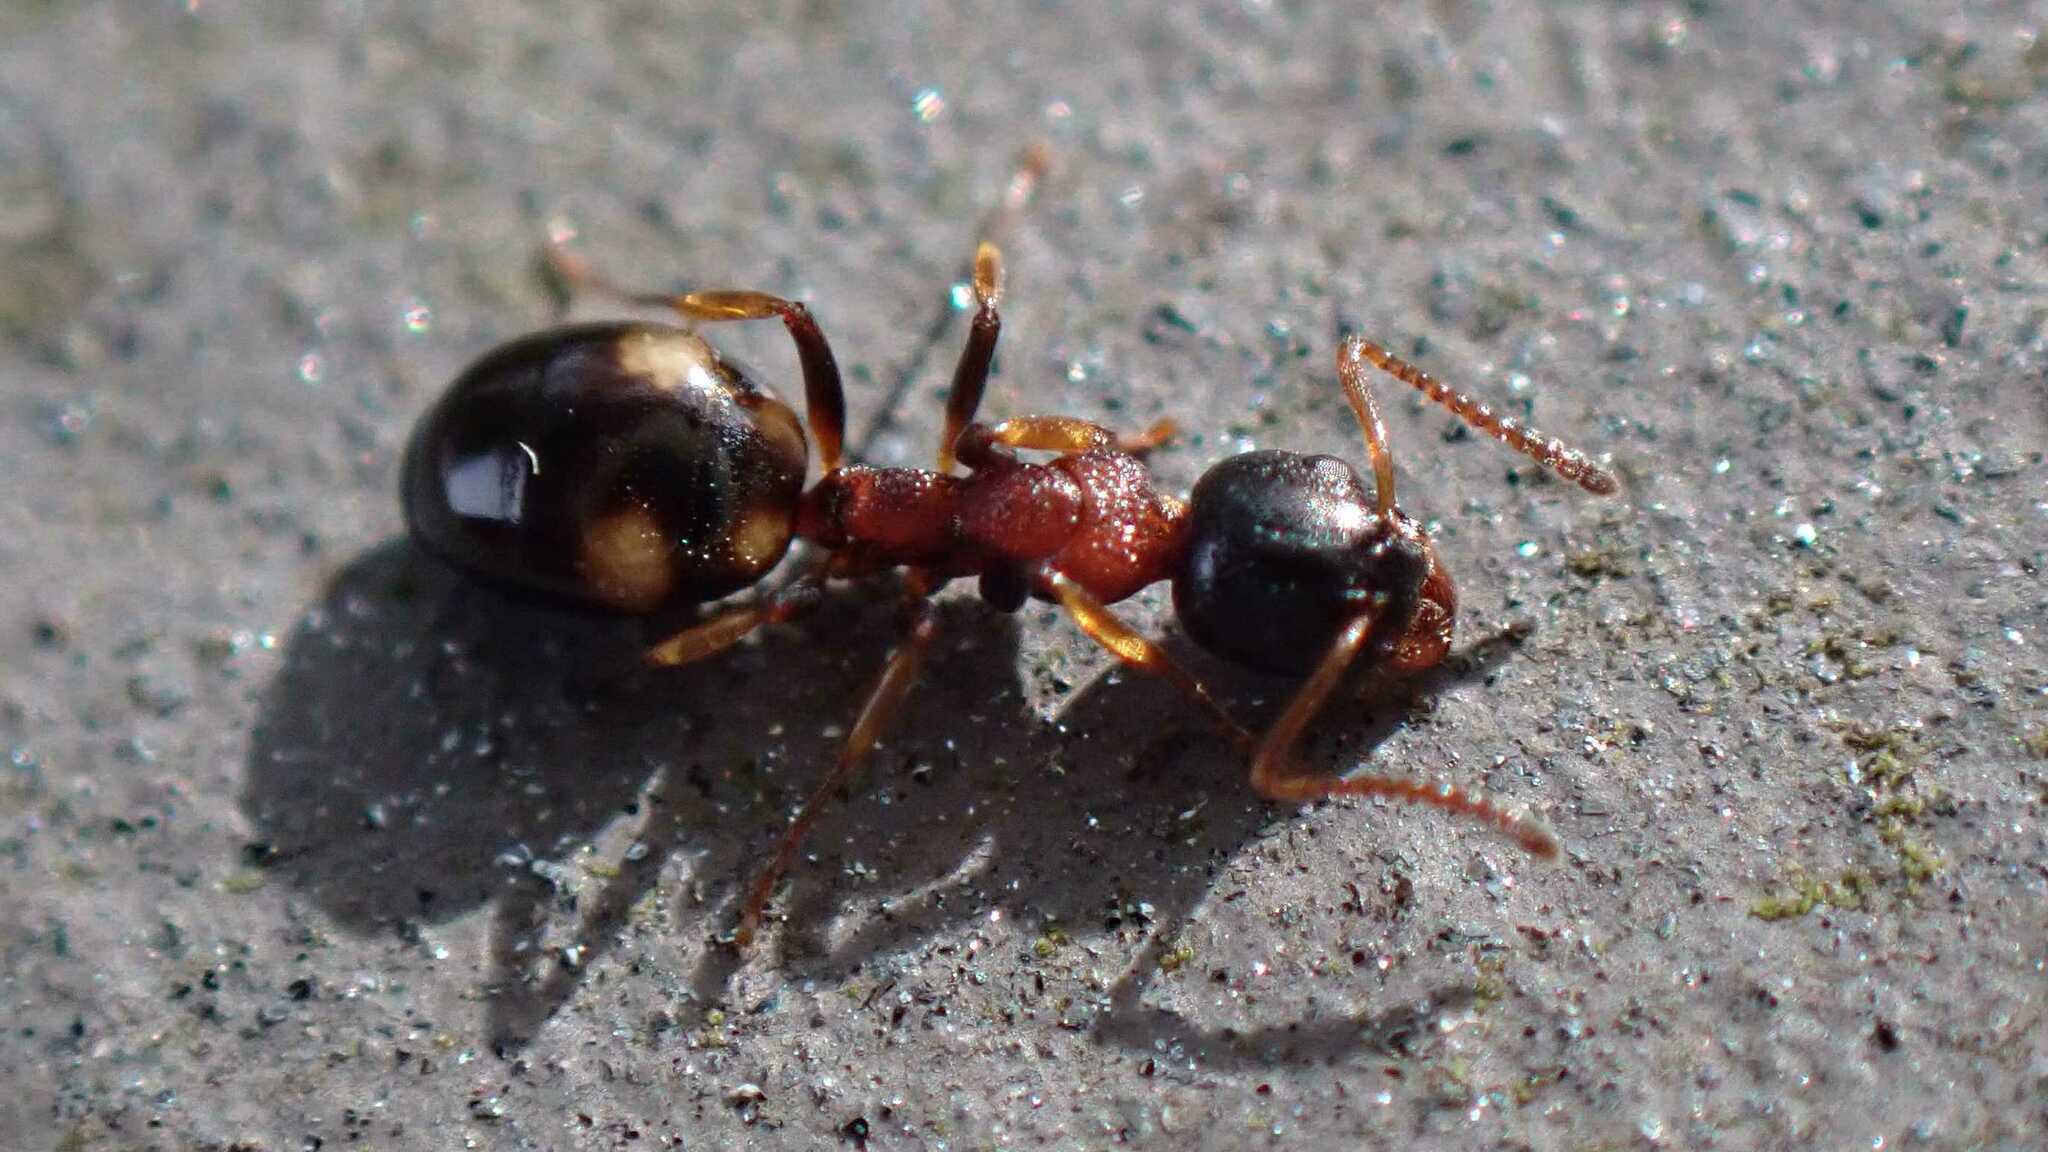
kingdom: Animalia
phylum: Arthropoda
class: Insecta
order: Hymenoptera
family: Formicidae
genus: Dolichoderus
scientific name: Dolichoderus quadripunctatus
